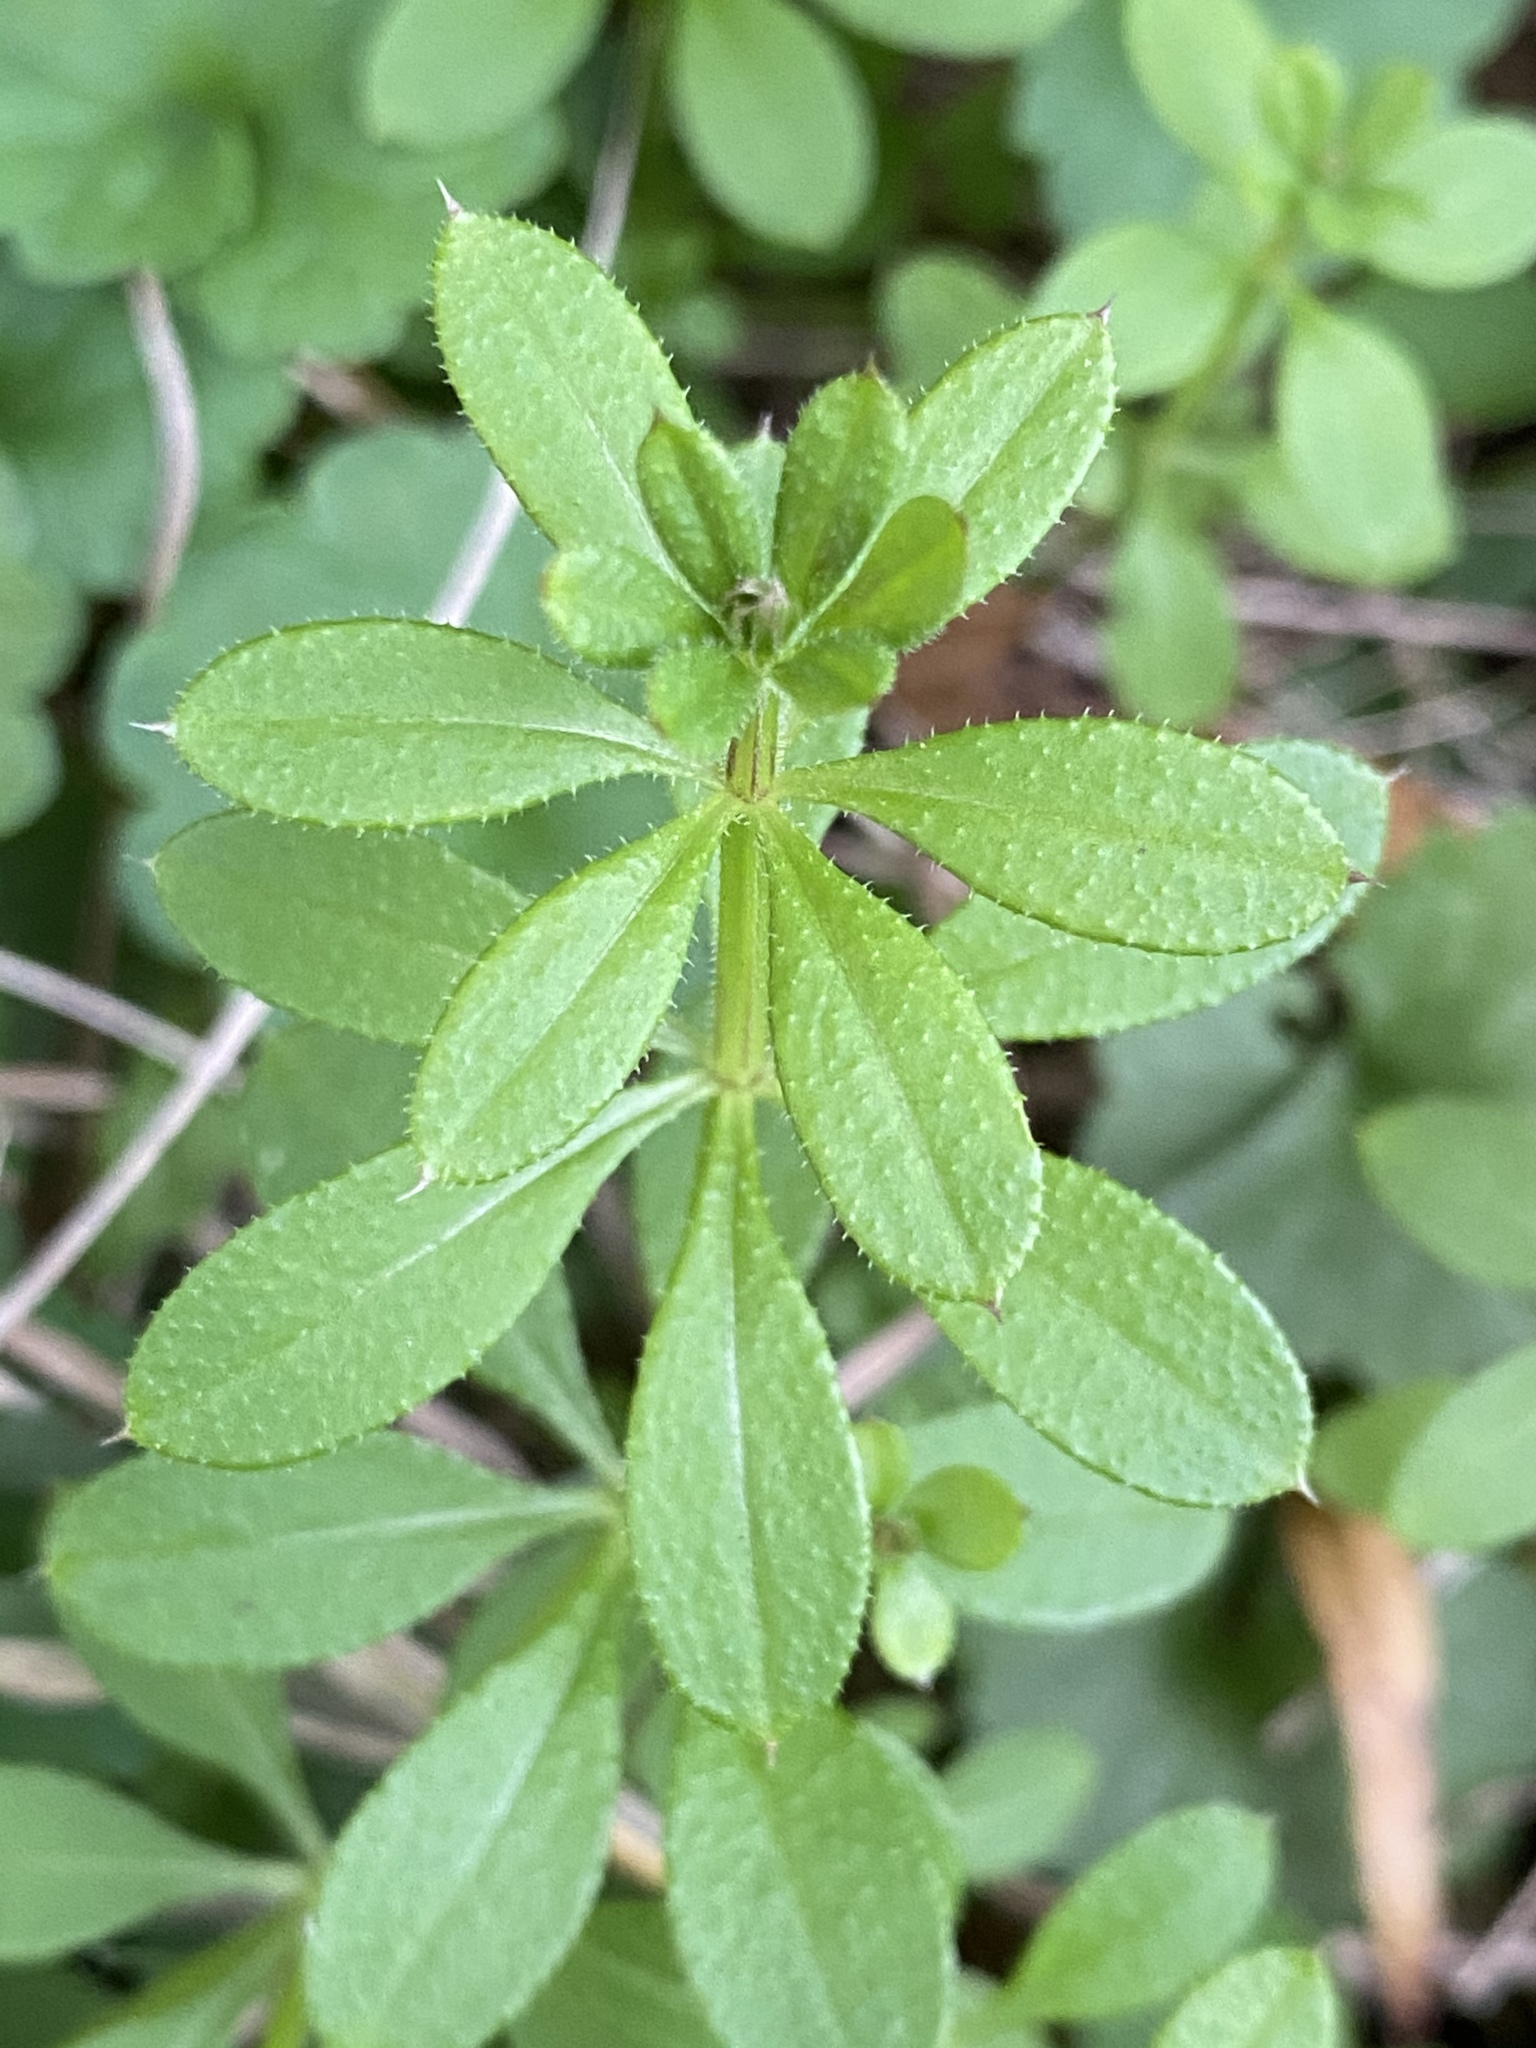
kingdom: Plantae
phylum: Tracheophyta
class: Magnoliopsida
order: Gentianales
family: Rubiaceae
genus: Galium
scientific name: Galium aparine
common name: Cleavers
